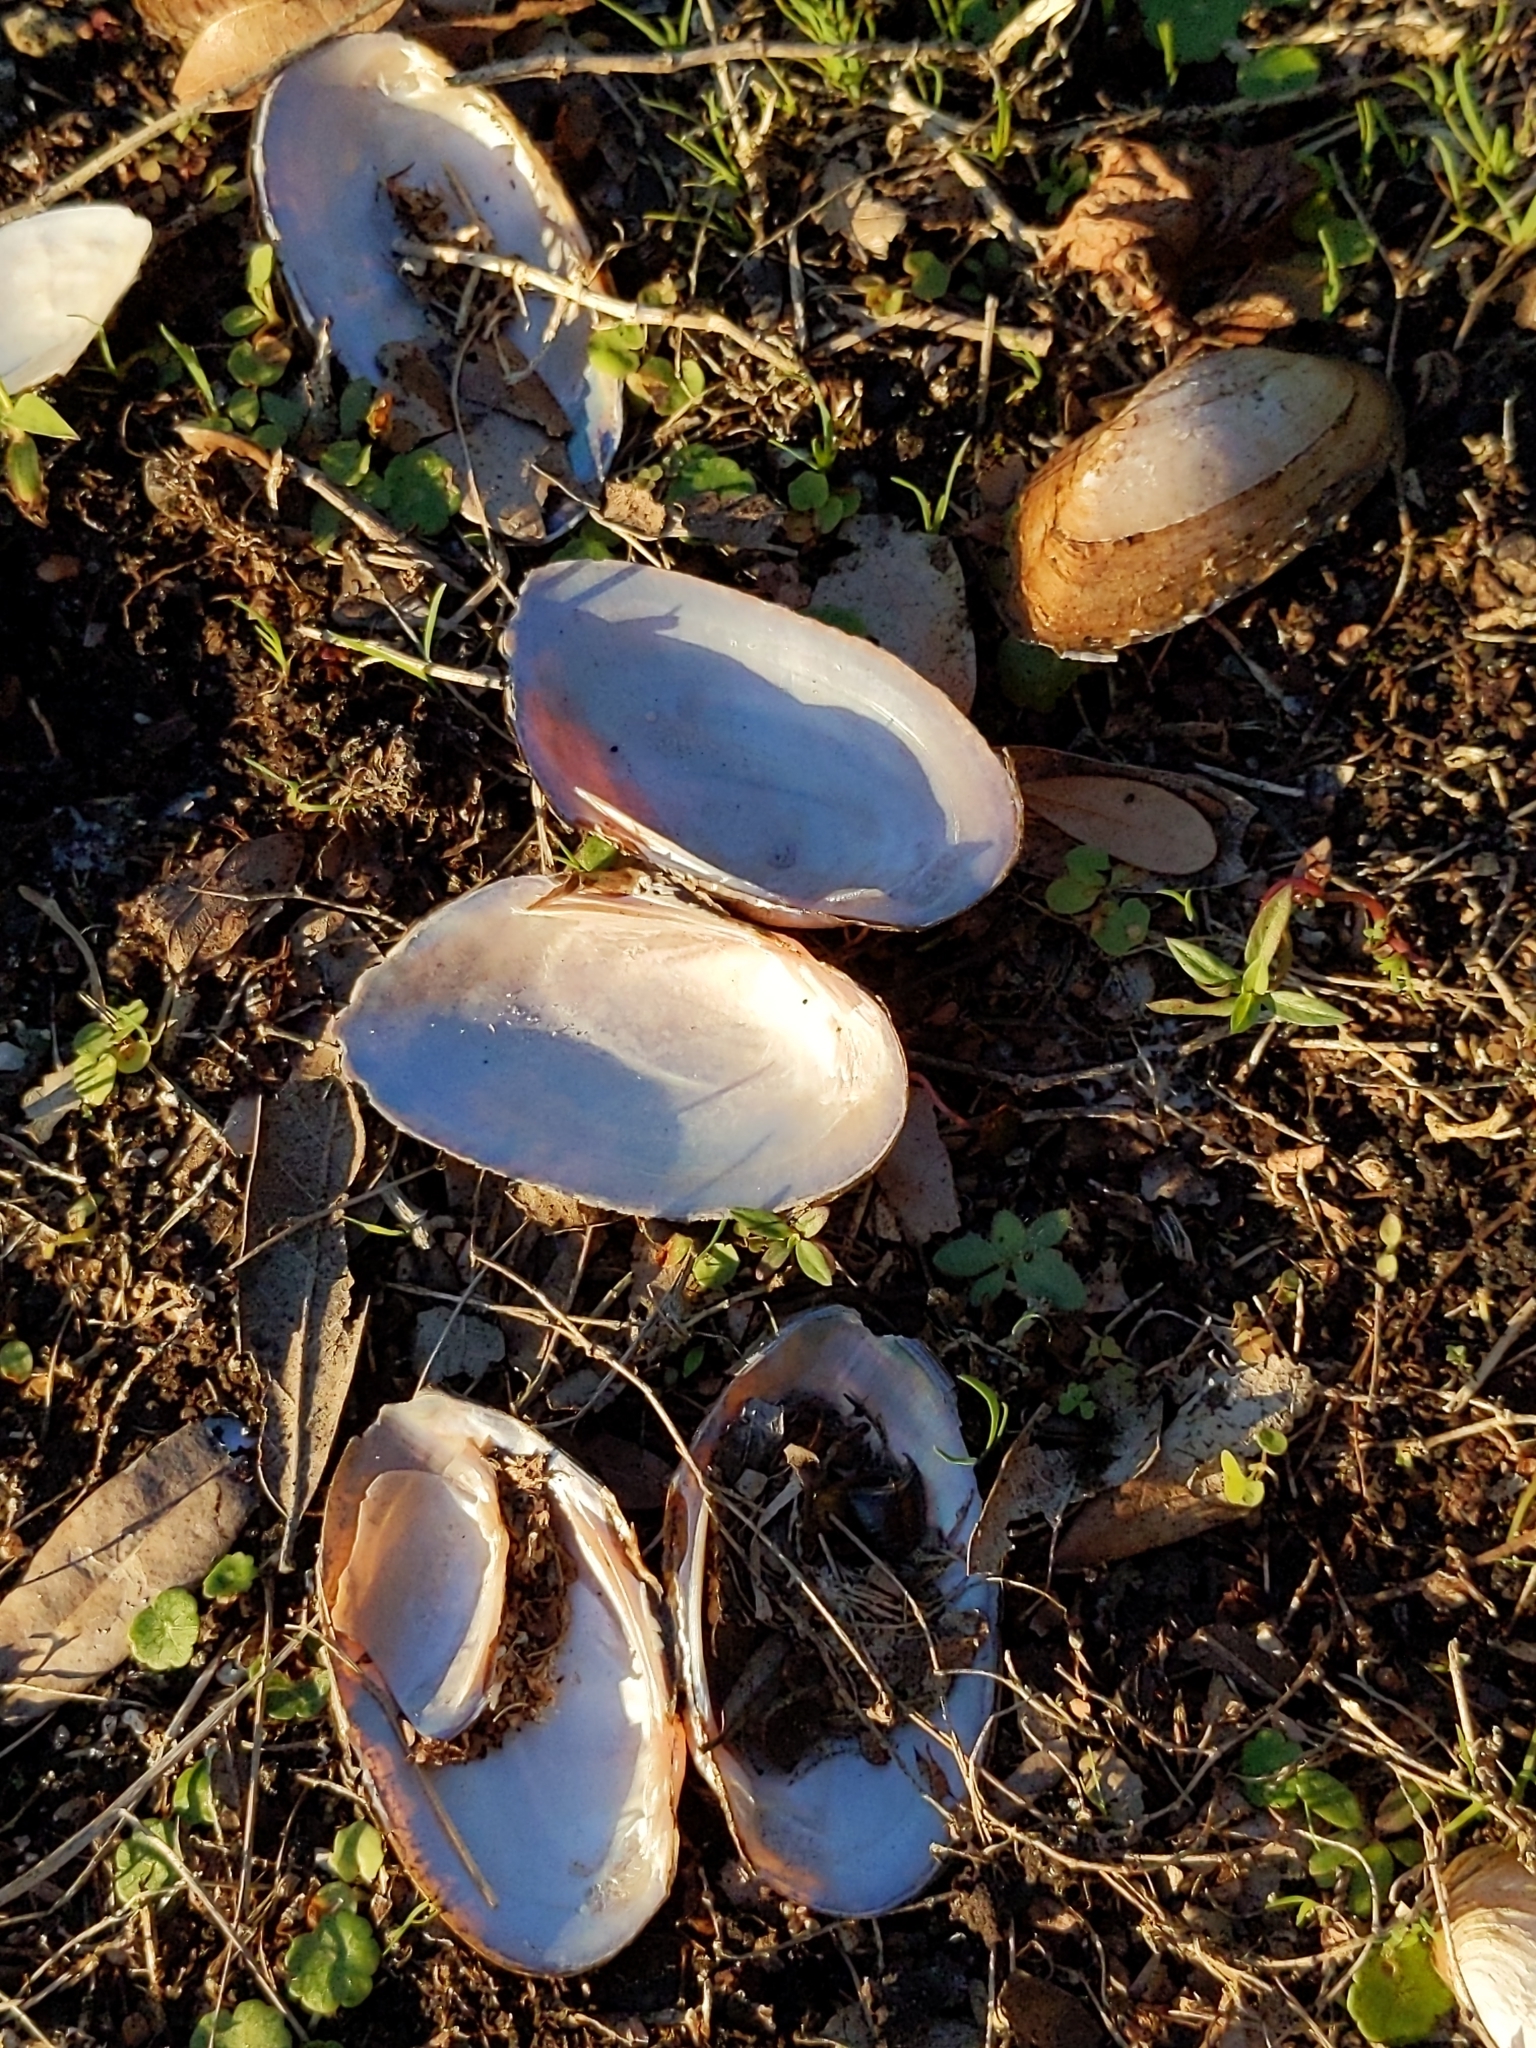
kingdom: Animalia
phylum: Mollusca
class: Bivalvia
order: Unionida
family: Unionidae
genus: Elliptio
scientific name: Elliptio jayensis
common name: Florida spike
